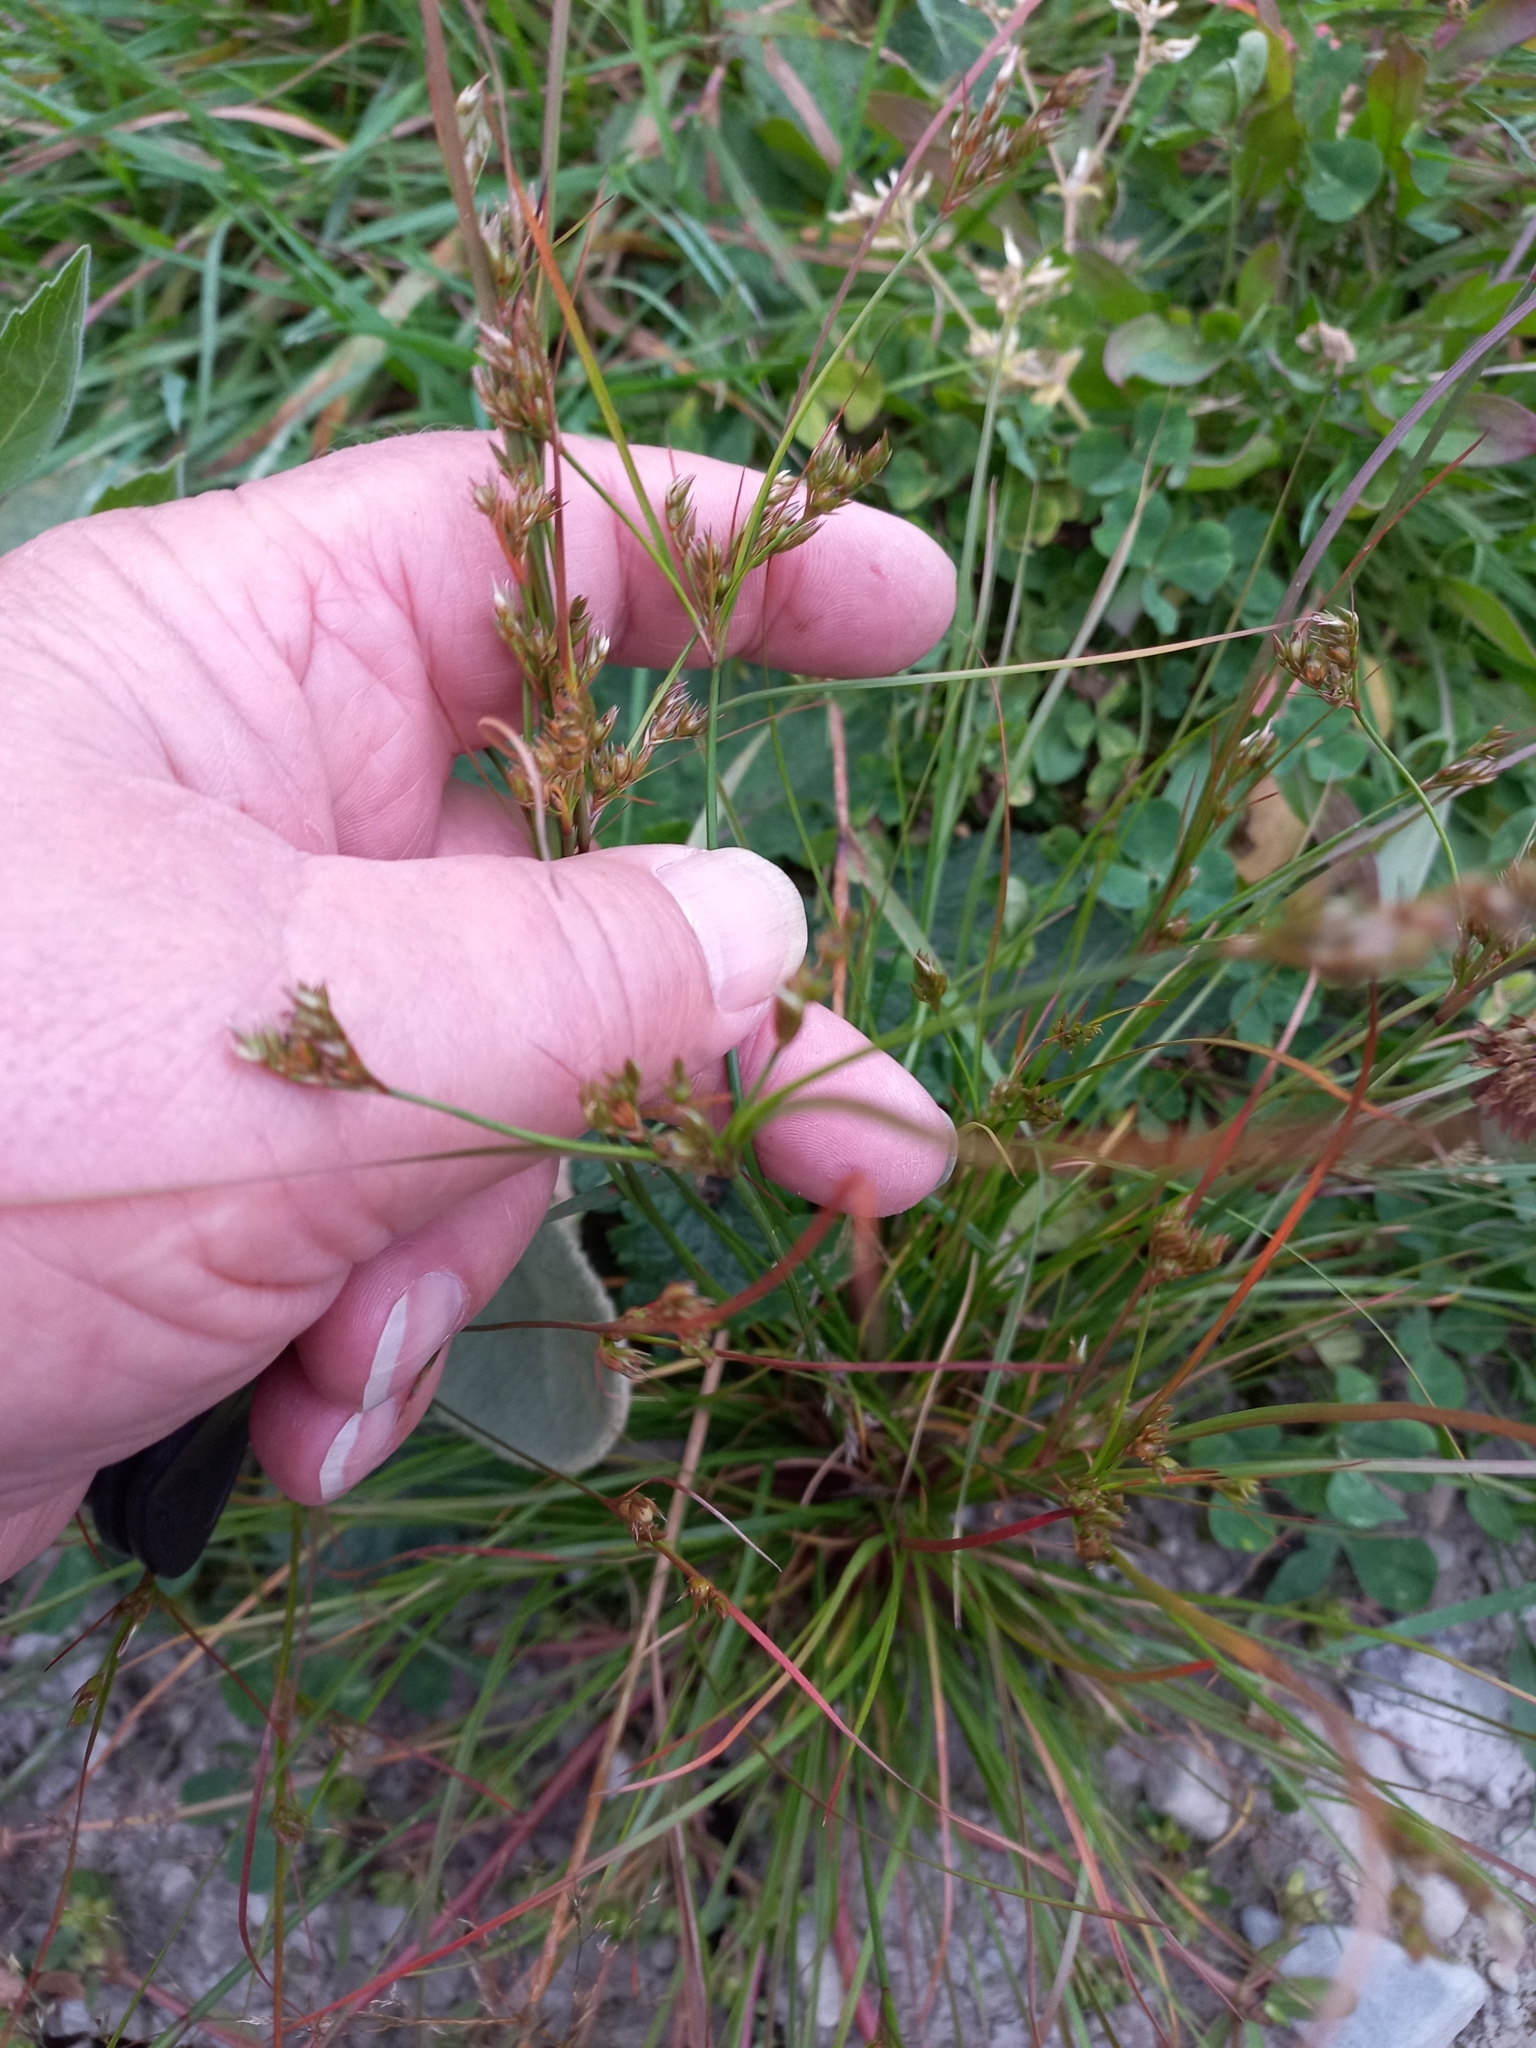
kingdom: Plantae
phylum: Tracheophyta
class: Liliopsida
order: Poales
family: Juncaceae
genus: Juncus
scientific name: Juncus tenuis
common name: Slender rush
